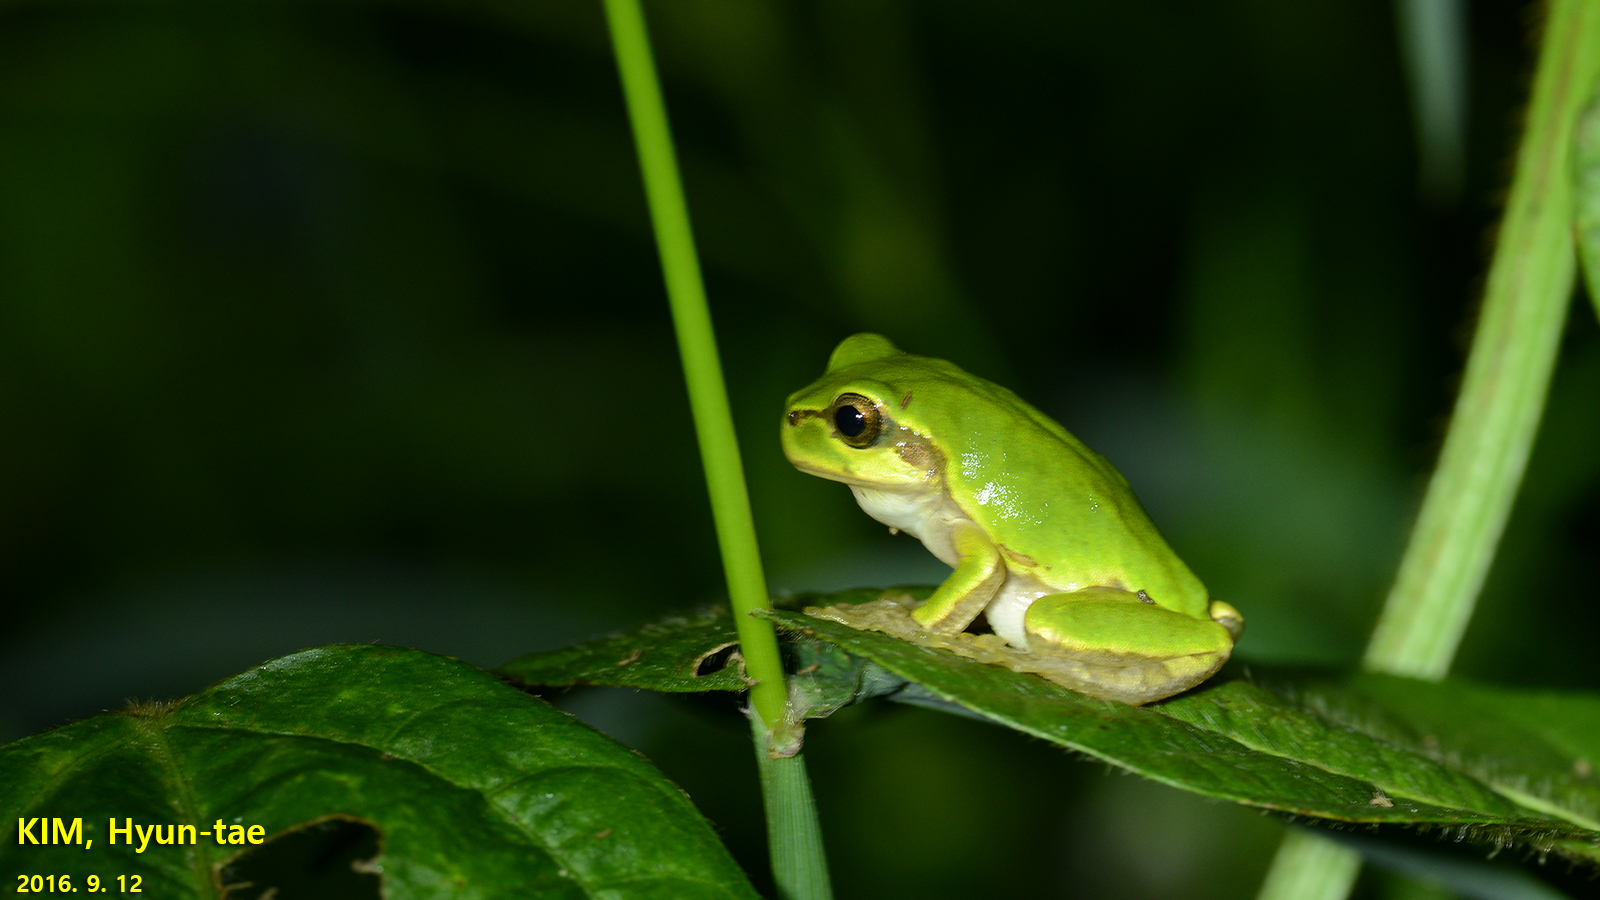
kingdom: Animalia
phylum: Chordata
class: Amphibia
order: Anura
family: Hylidae
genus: Dryophytes
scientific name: Dryophytes japonicus
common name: Japanese treefrog
